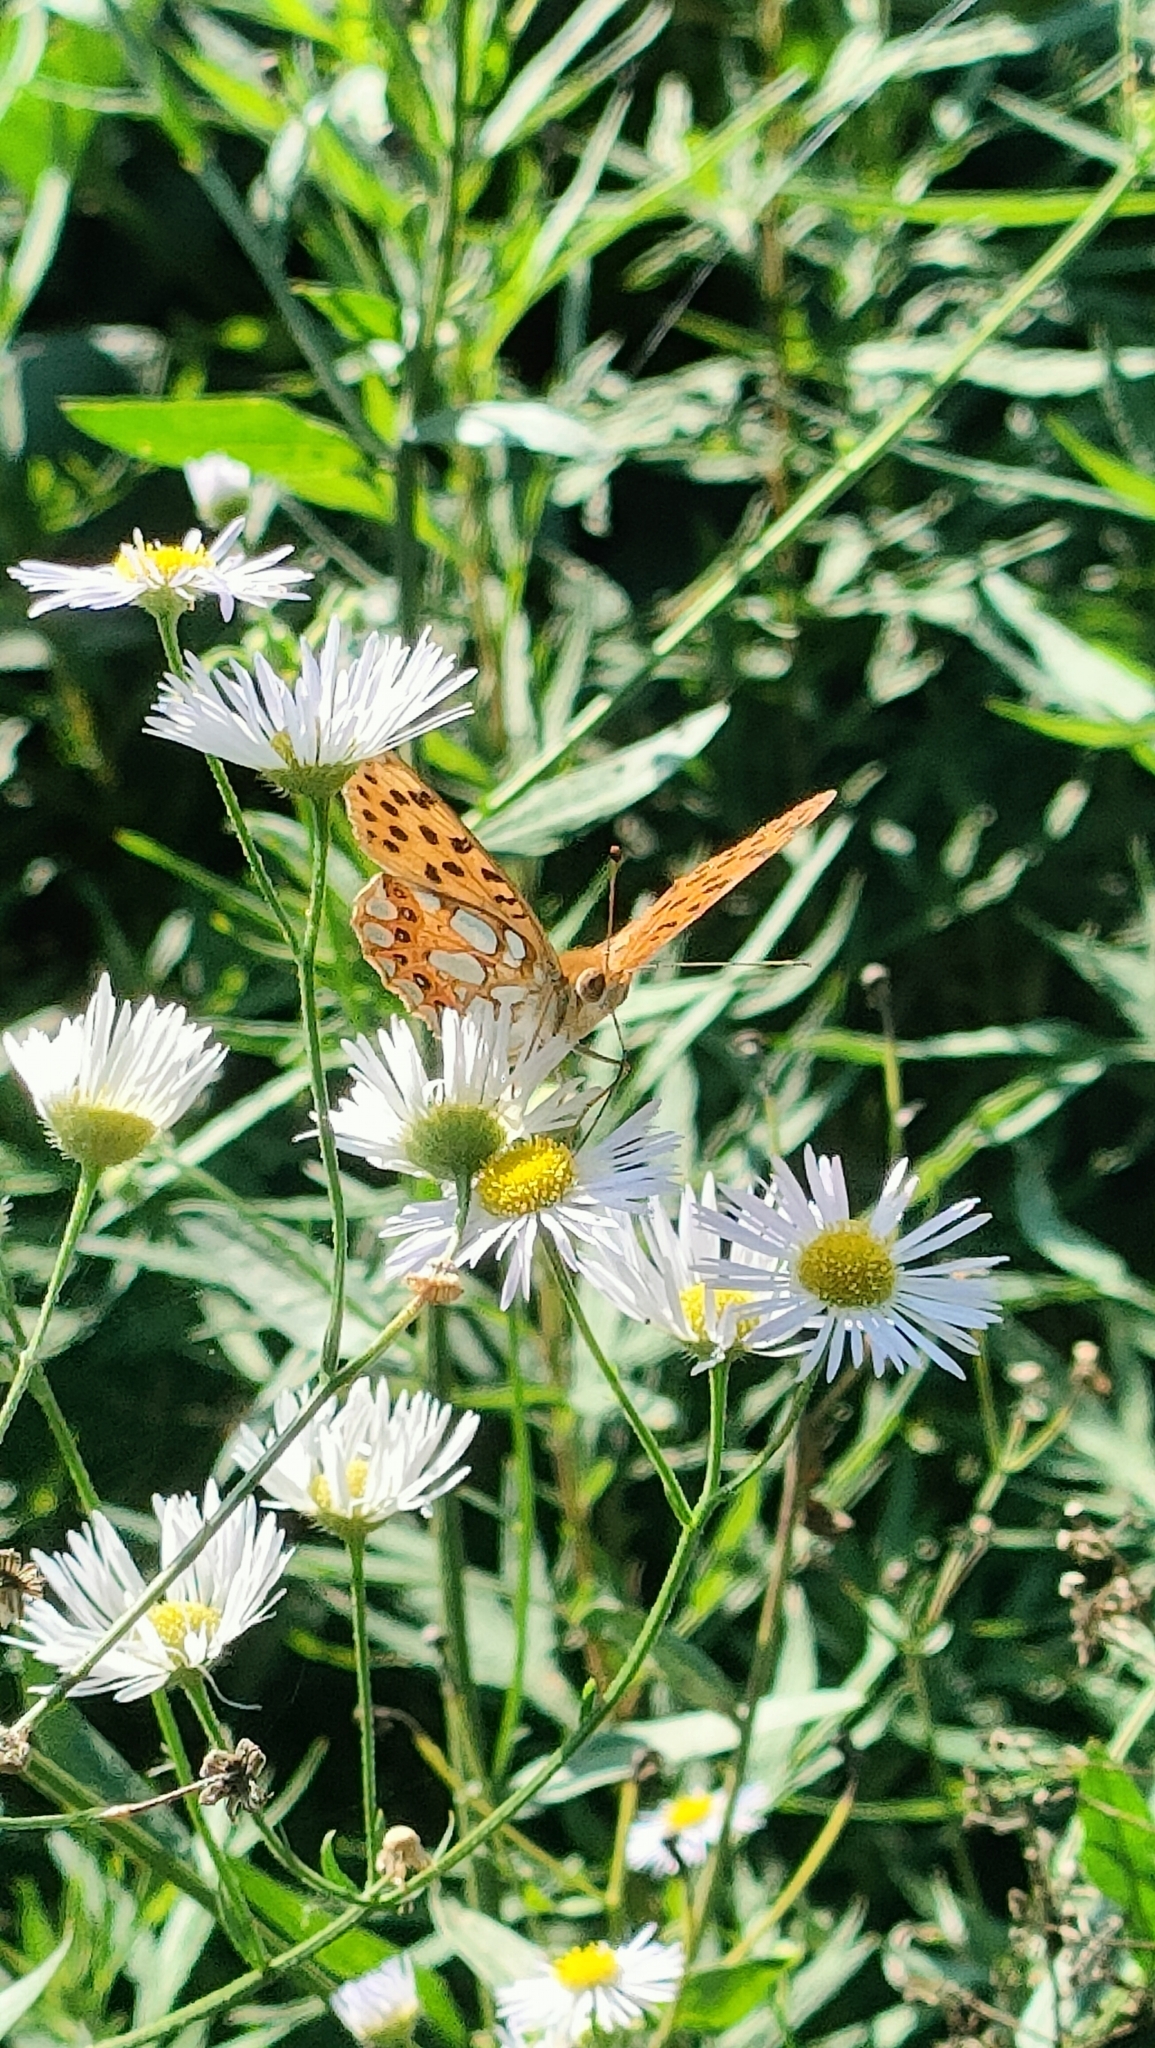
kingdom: Animalia
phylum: Arthropoda
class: Insecta
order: Lepidoptera
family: Nymphalidae
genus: Issoria
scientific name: Issoria lathonia
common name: Queen of spain fritillary
